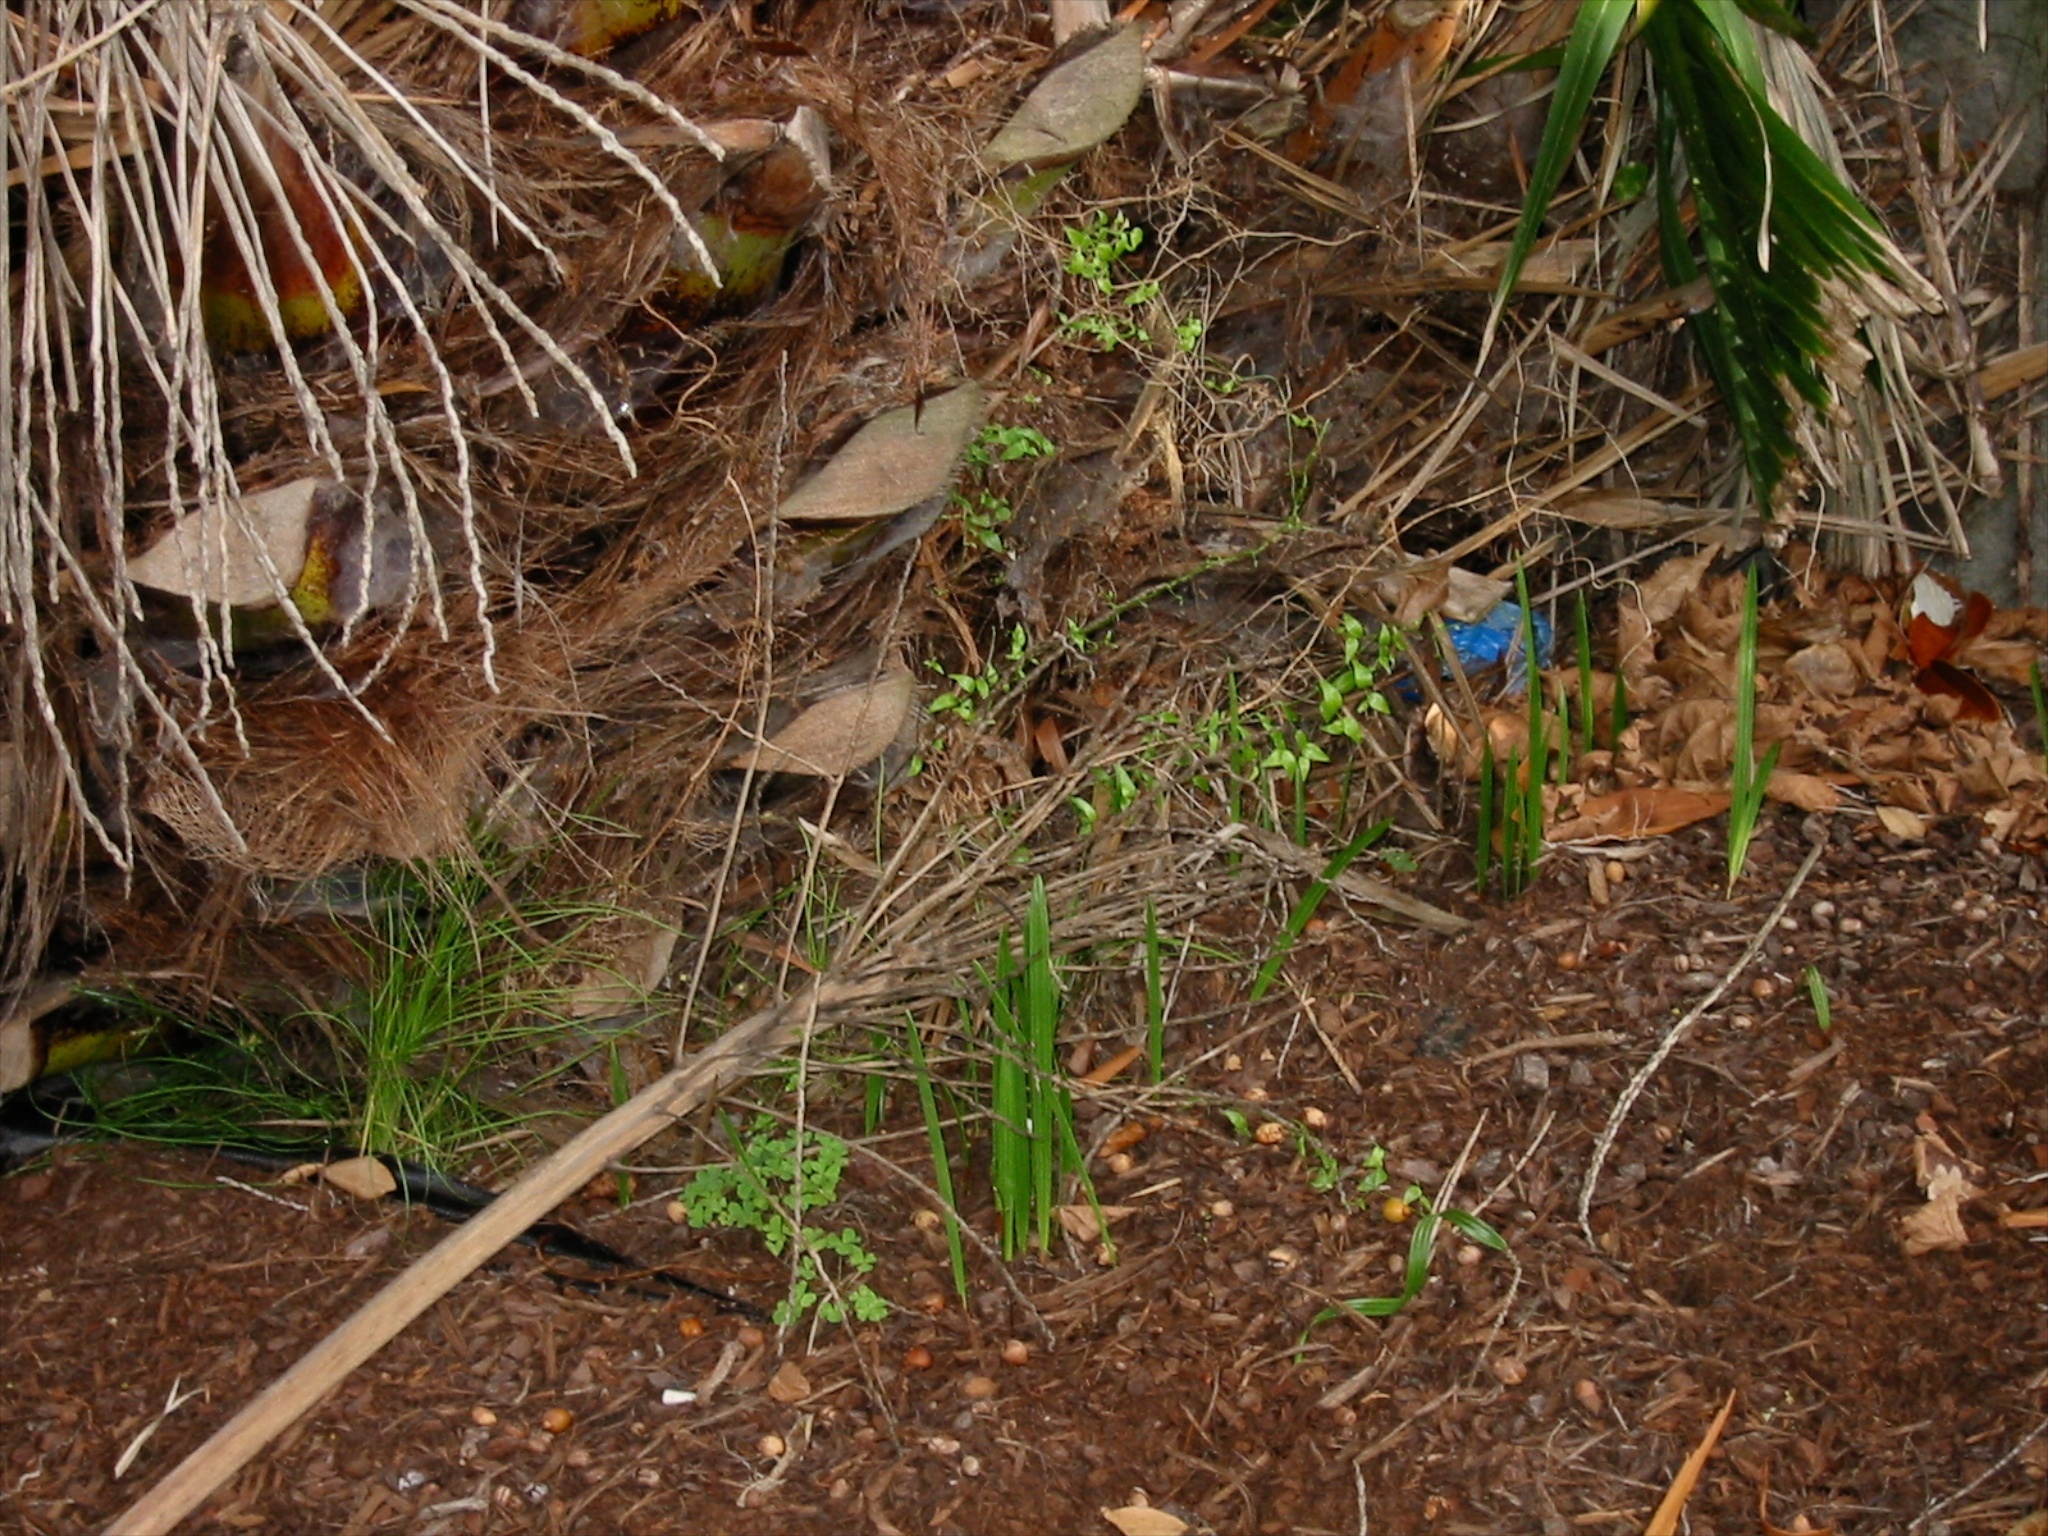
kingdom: Plantae
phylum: Tracheophyta
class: Liliopsida
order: Arecales
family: Arecaceae
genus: Phoenix
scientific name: Phoenix canariensis
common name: Canary island date palm
